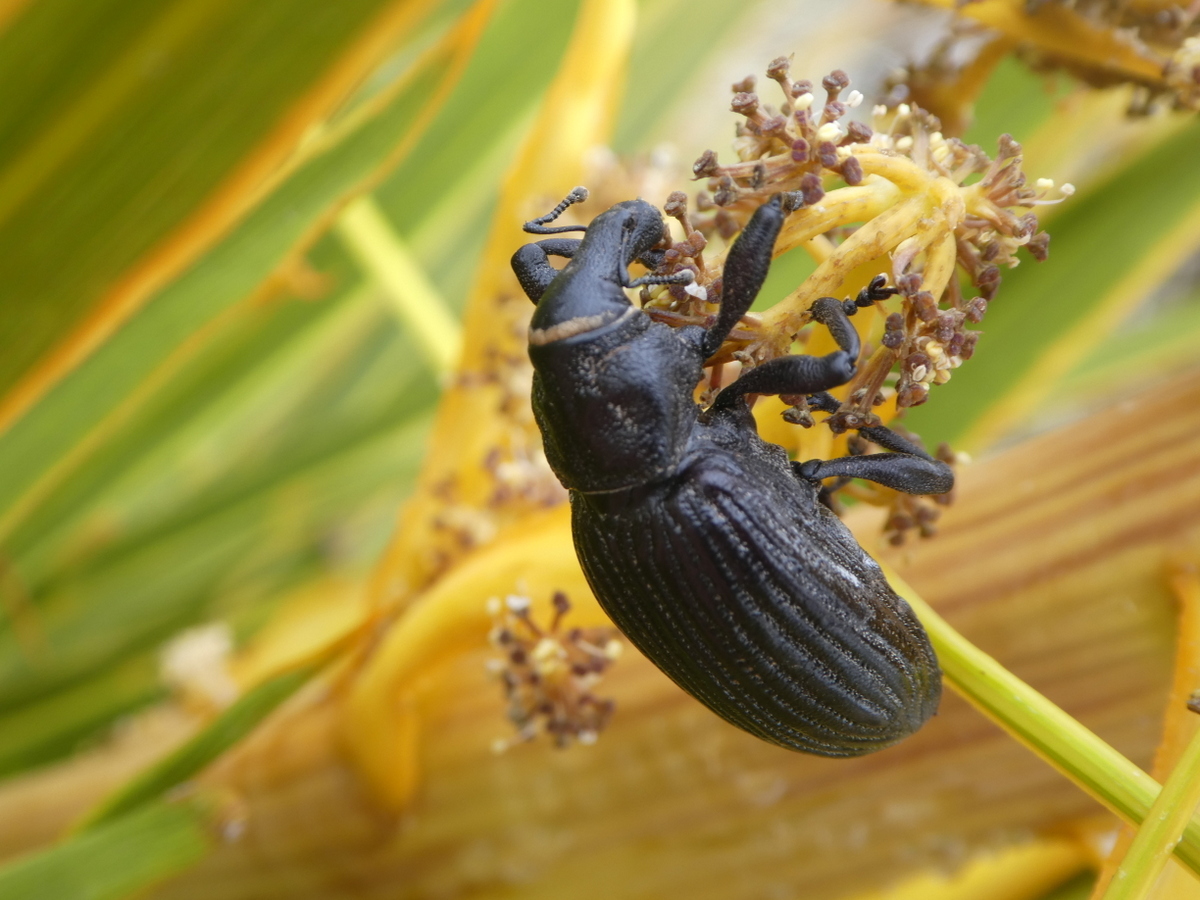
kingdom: Animalia
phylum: Arthropoda
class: Insecta
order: Coleoptera
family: Curculionidae
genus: Lyperobius
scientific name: Lyperobius huttoni
